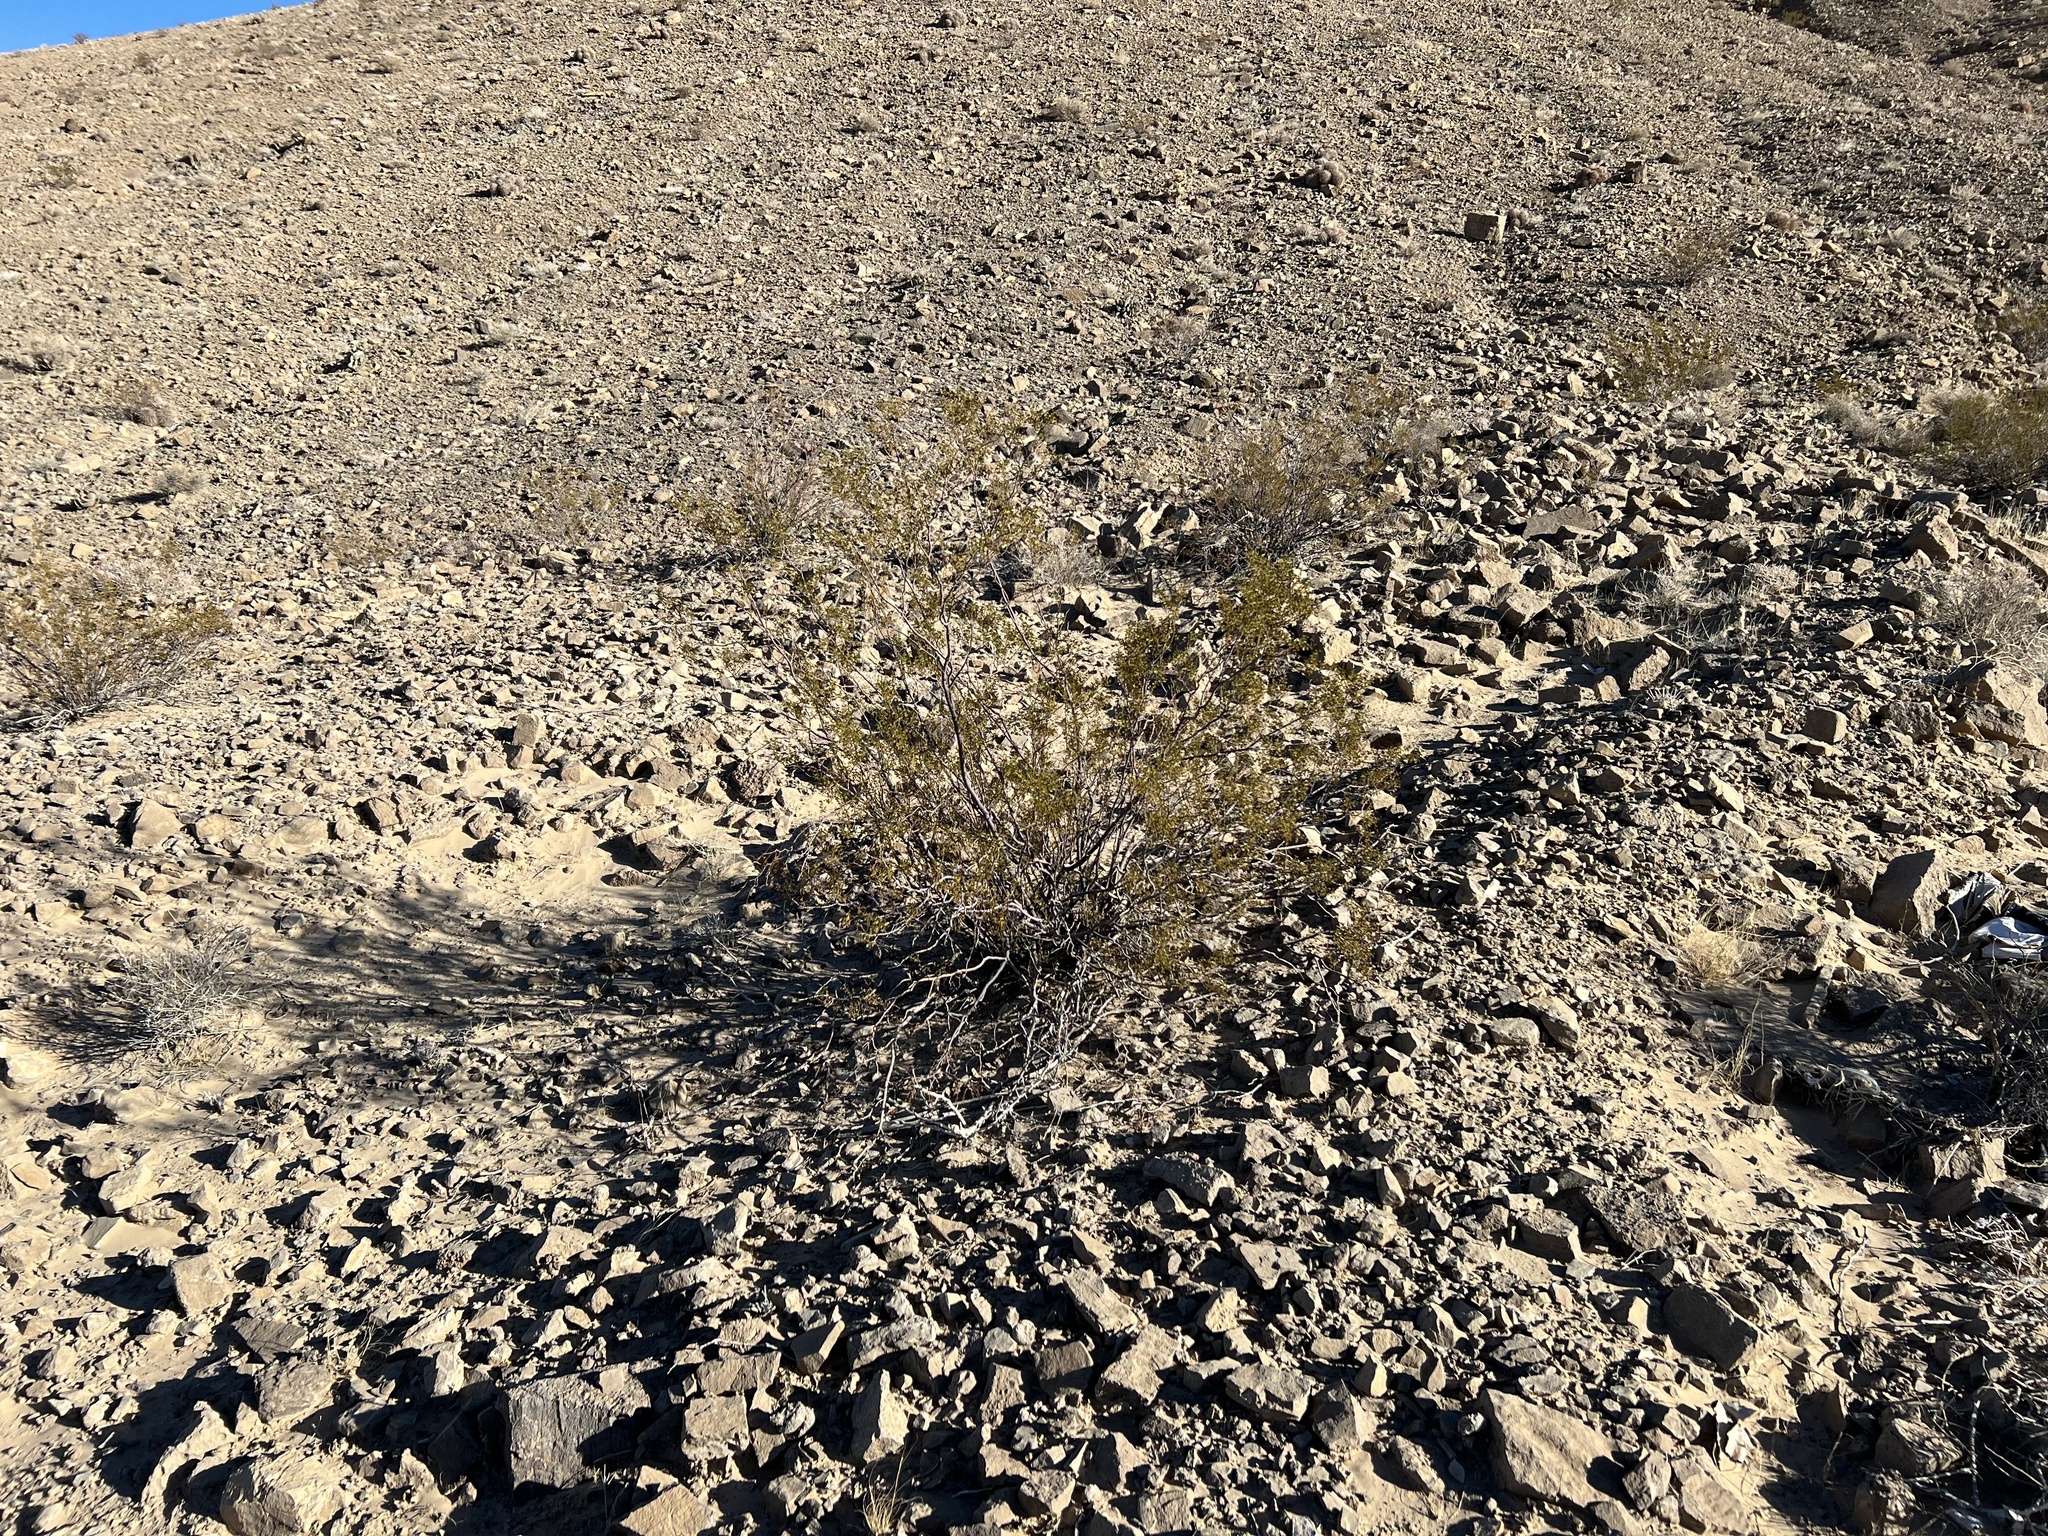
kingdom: Plantae
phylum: Tracheophyta
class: Magnoliopsida
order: Zygophyllales
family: Zygophyllaceae
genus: Larrea
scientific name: Larrea tridentata
